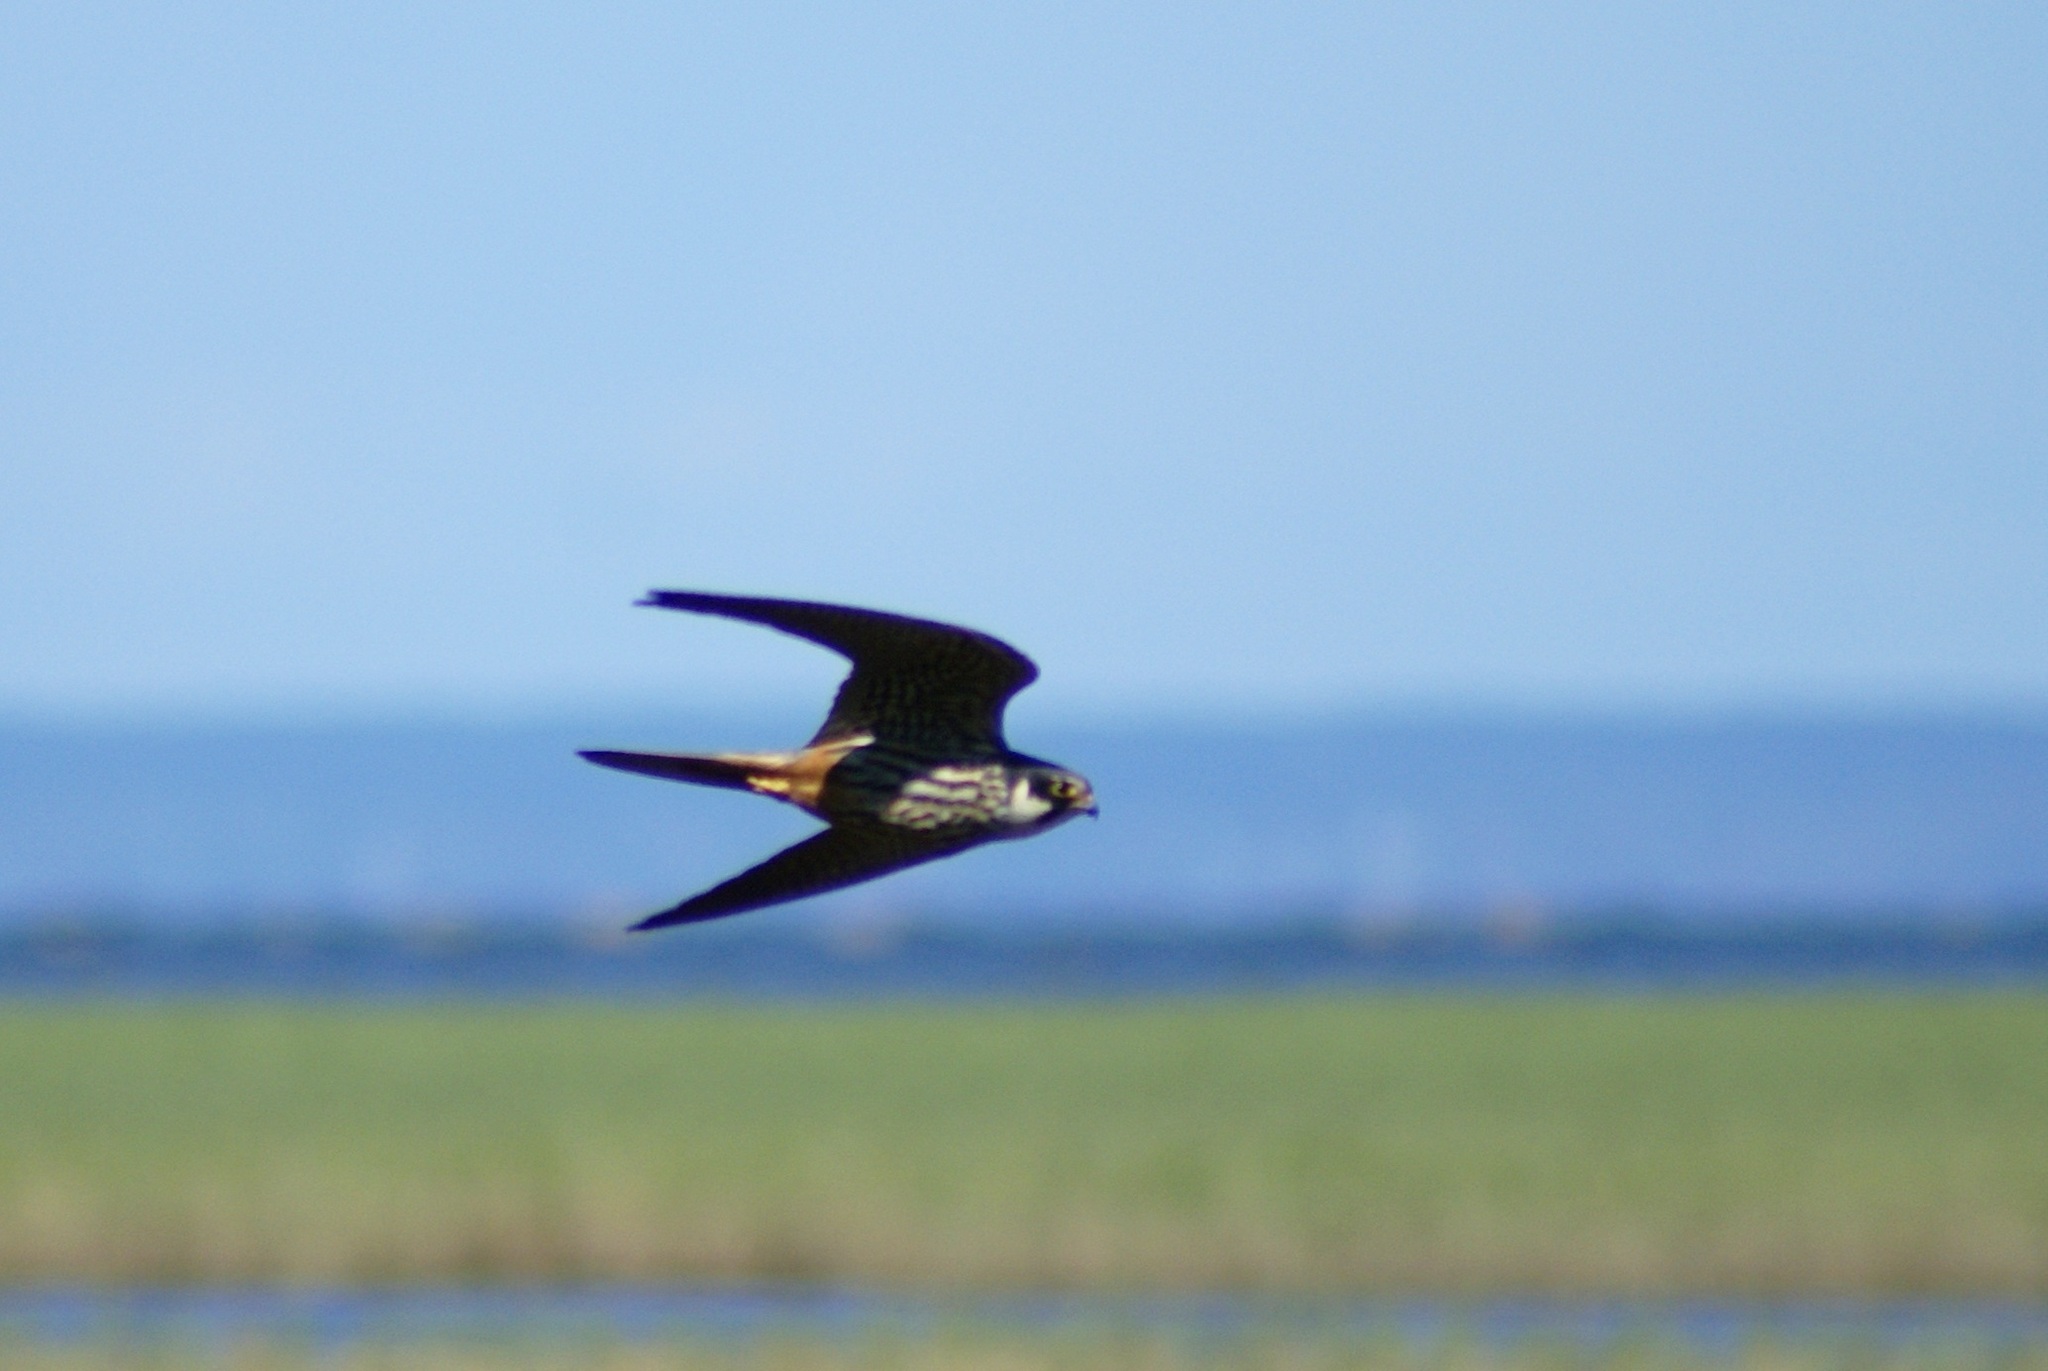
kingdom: Animalia
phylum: Chordata
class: Aves
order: Falconiformes
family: Falconidae
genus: Falco
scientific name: Falco subbuteo
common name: Eurasian hobby
